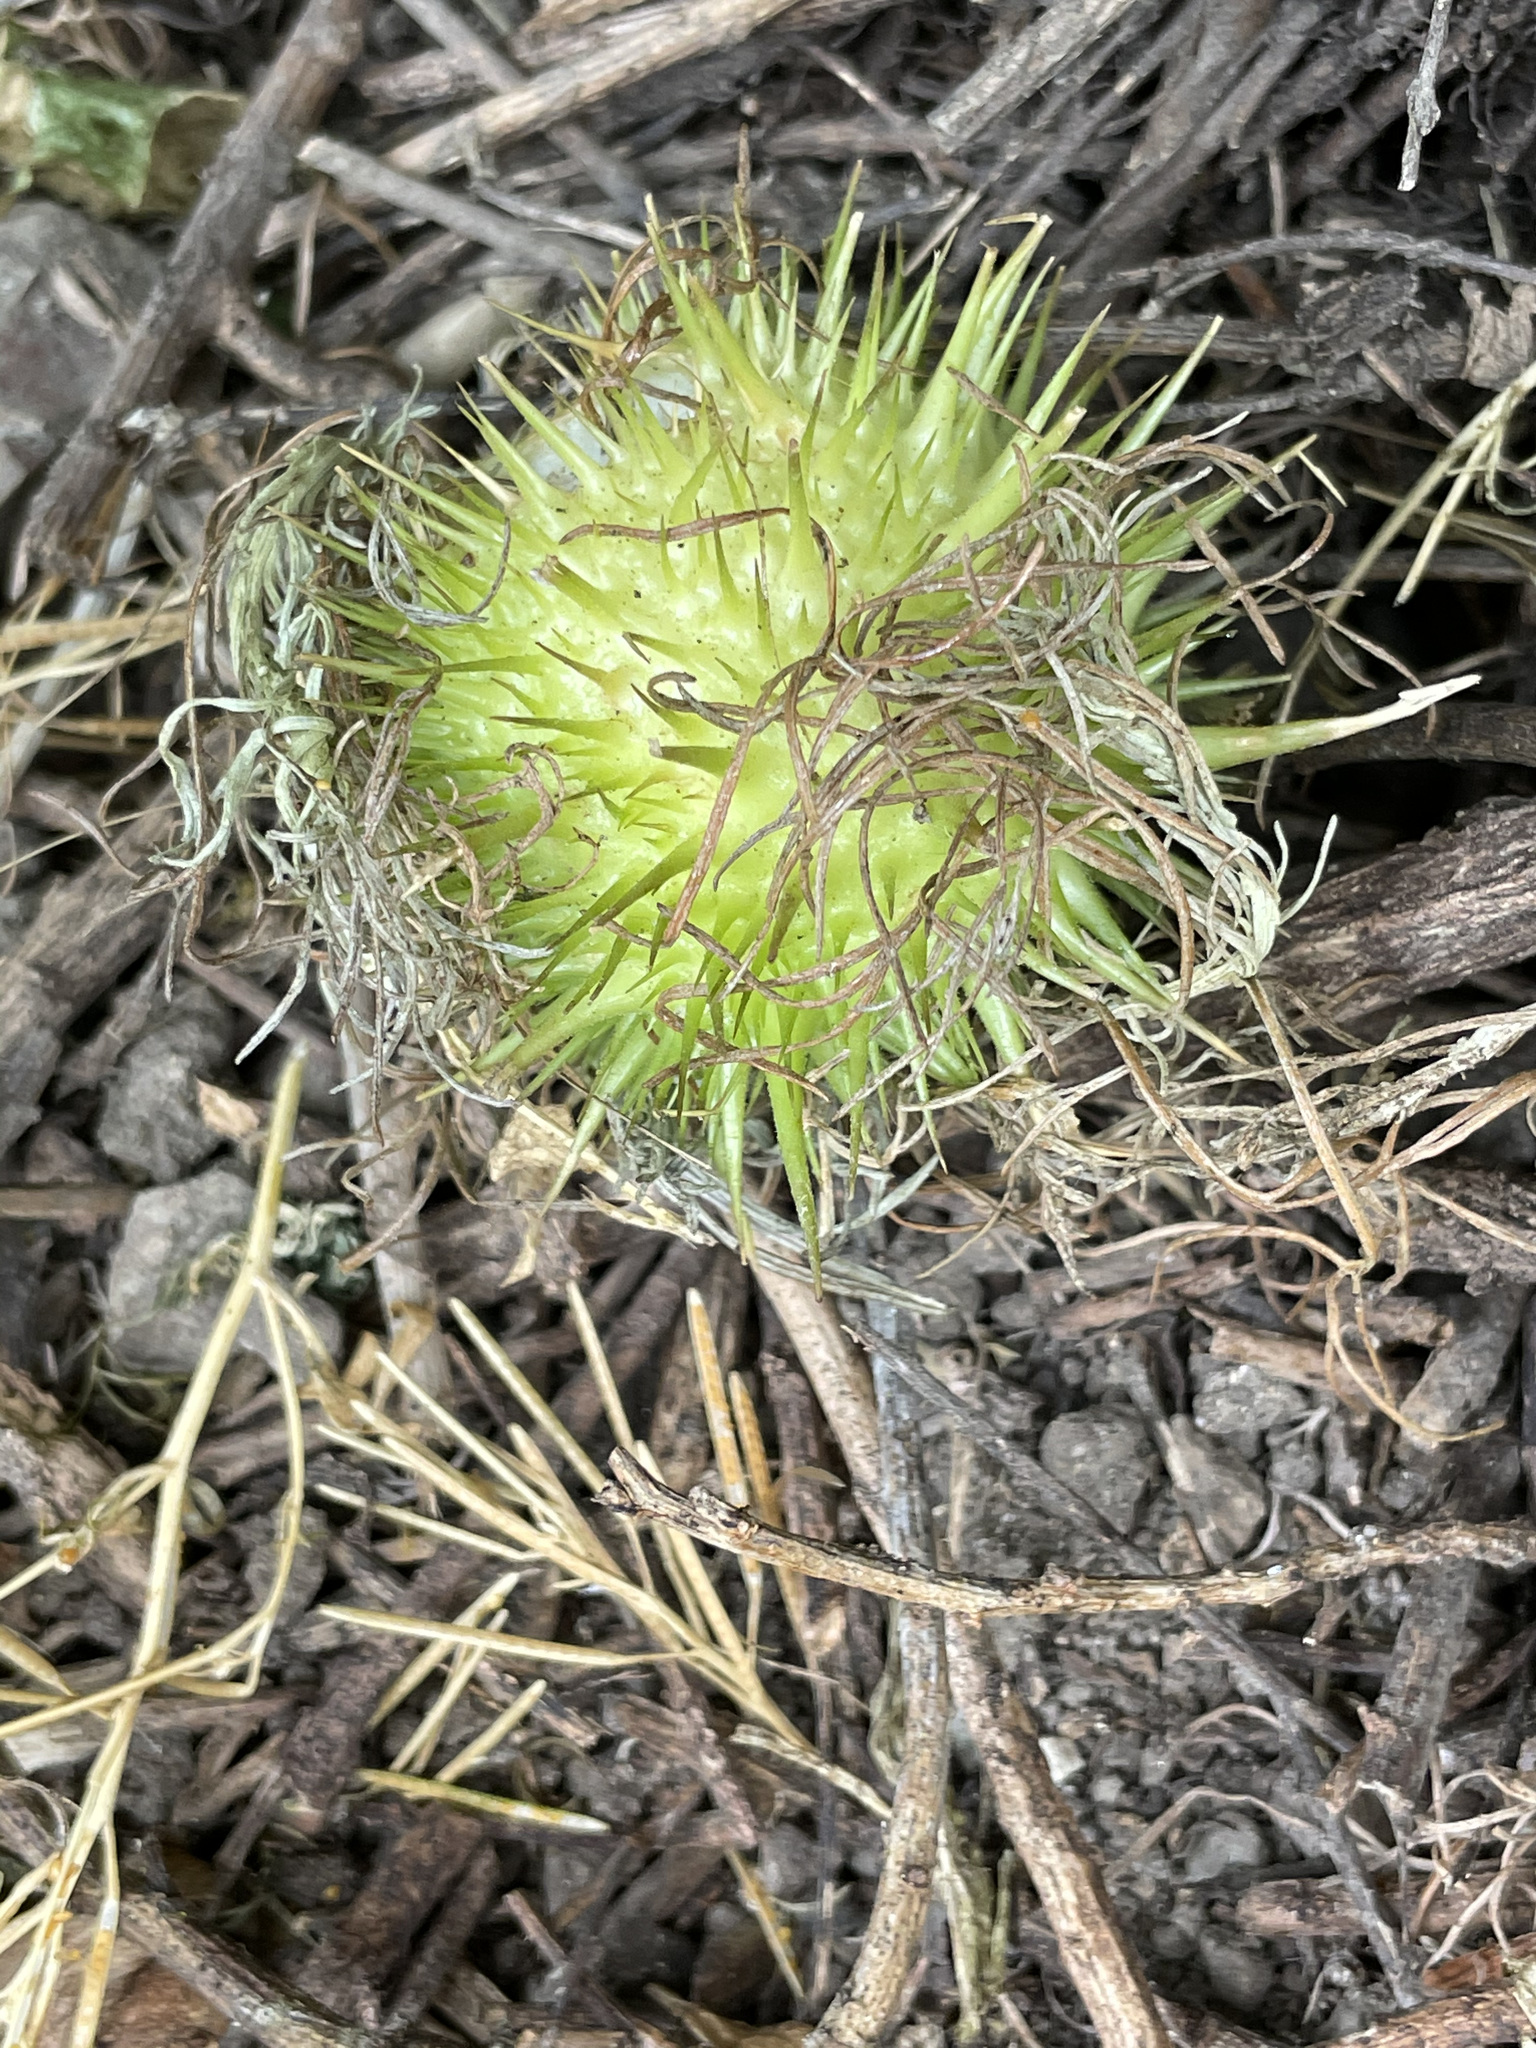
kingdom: Plantae
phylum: Tracheophyta
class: Magnoliopsida
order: Cucurbitales
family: Cucurbitaceae
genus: Marah
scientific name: Marah fabacea
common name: California manroot
